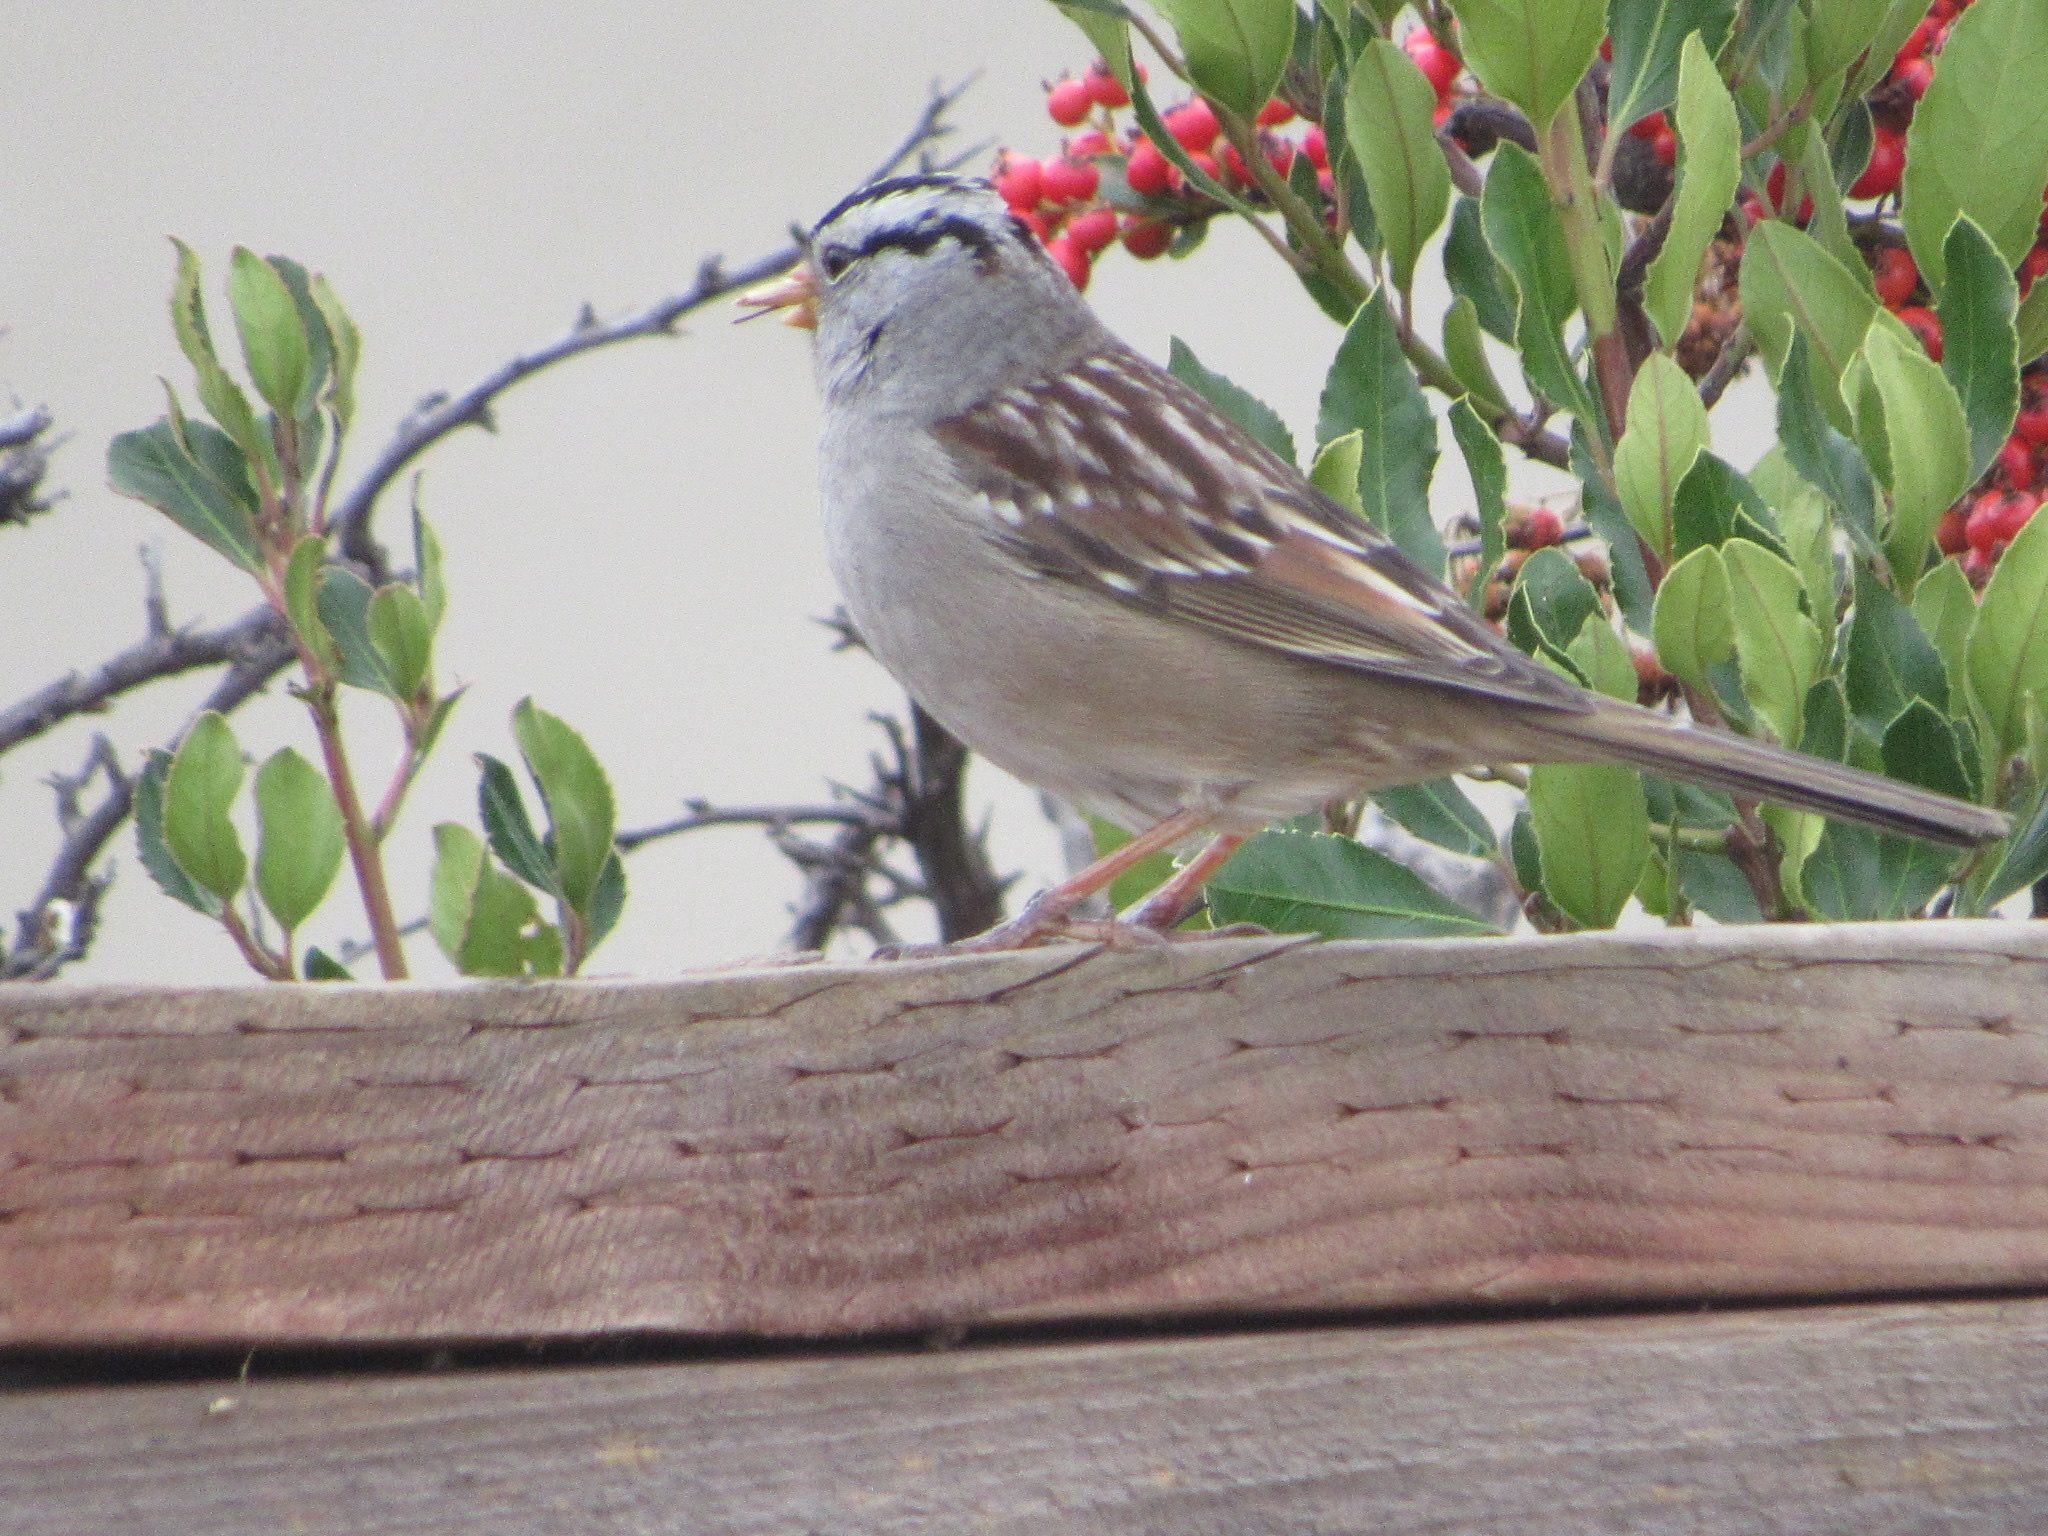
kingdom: Animalia
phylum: Chordata
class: Aves
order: Passeriformes
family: Passerellidae
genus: Zonotrichia
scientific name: Zonotrichia leucophrys
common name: White-crowned sparrow
